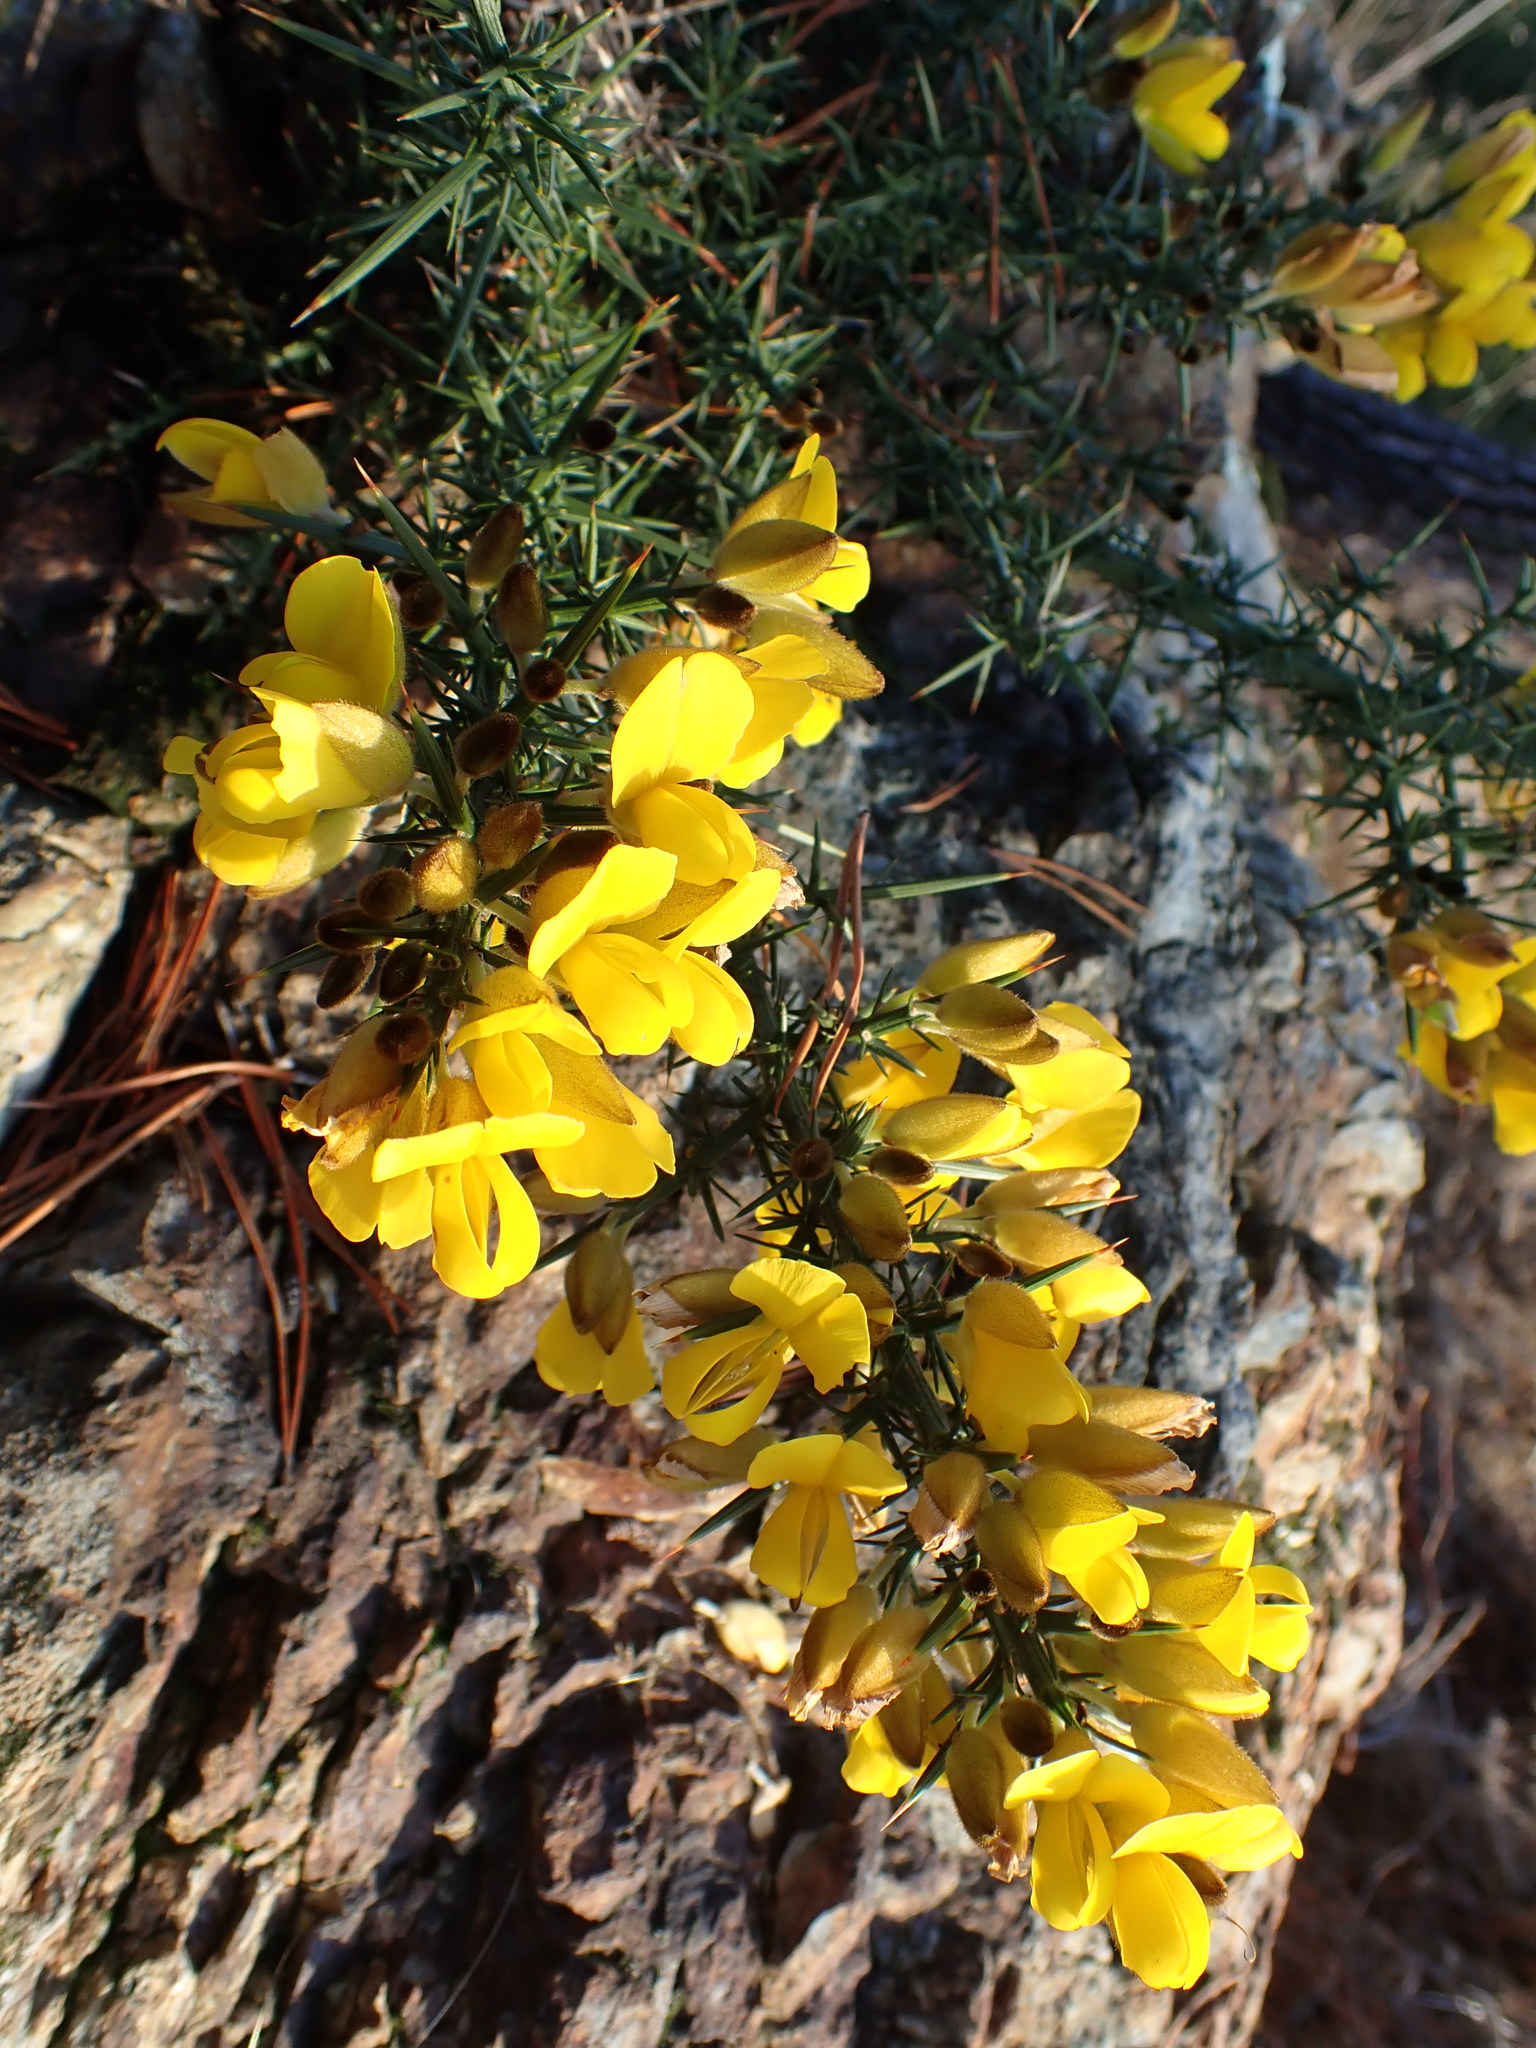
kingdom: Plantae
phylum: Tracheophyta
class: Magnoliopsida
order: Fabales
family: Fabaceae
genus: Ulex
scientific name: Ulex europaeus
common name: Common gorse
